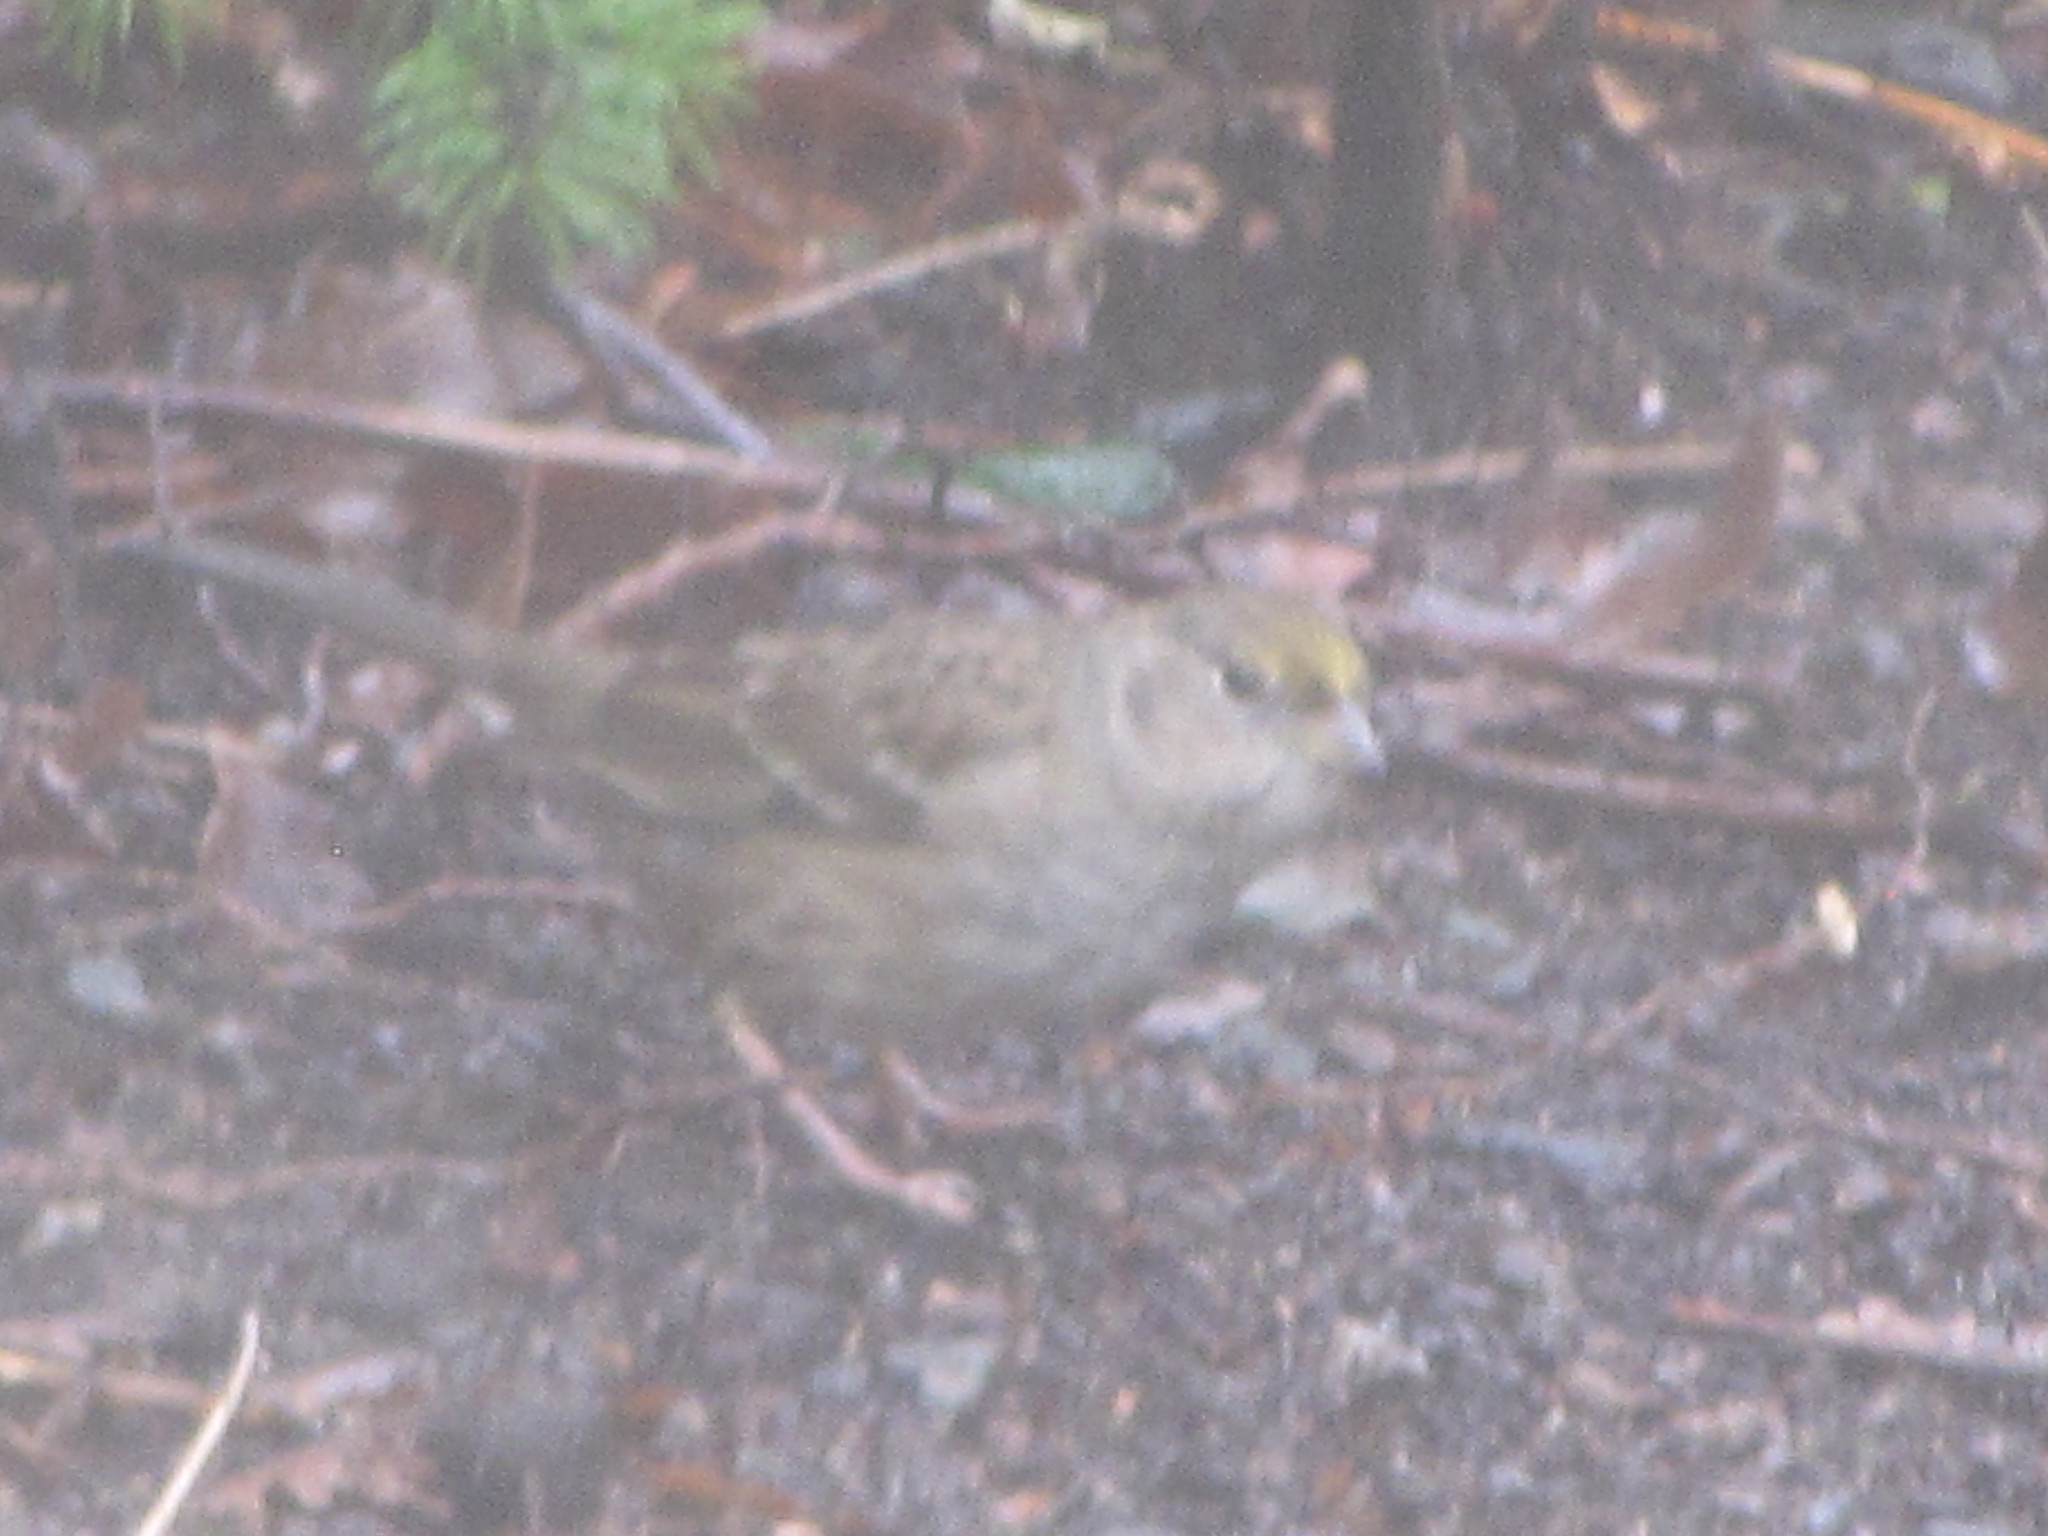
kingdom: Animalia
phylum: Chordata
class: Aves
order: Passeriformes
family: Passerellidae
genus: Zonotrichia
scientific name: Zonotrichia atricapilla
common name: Golden-crowned sparrow
